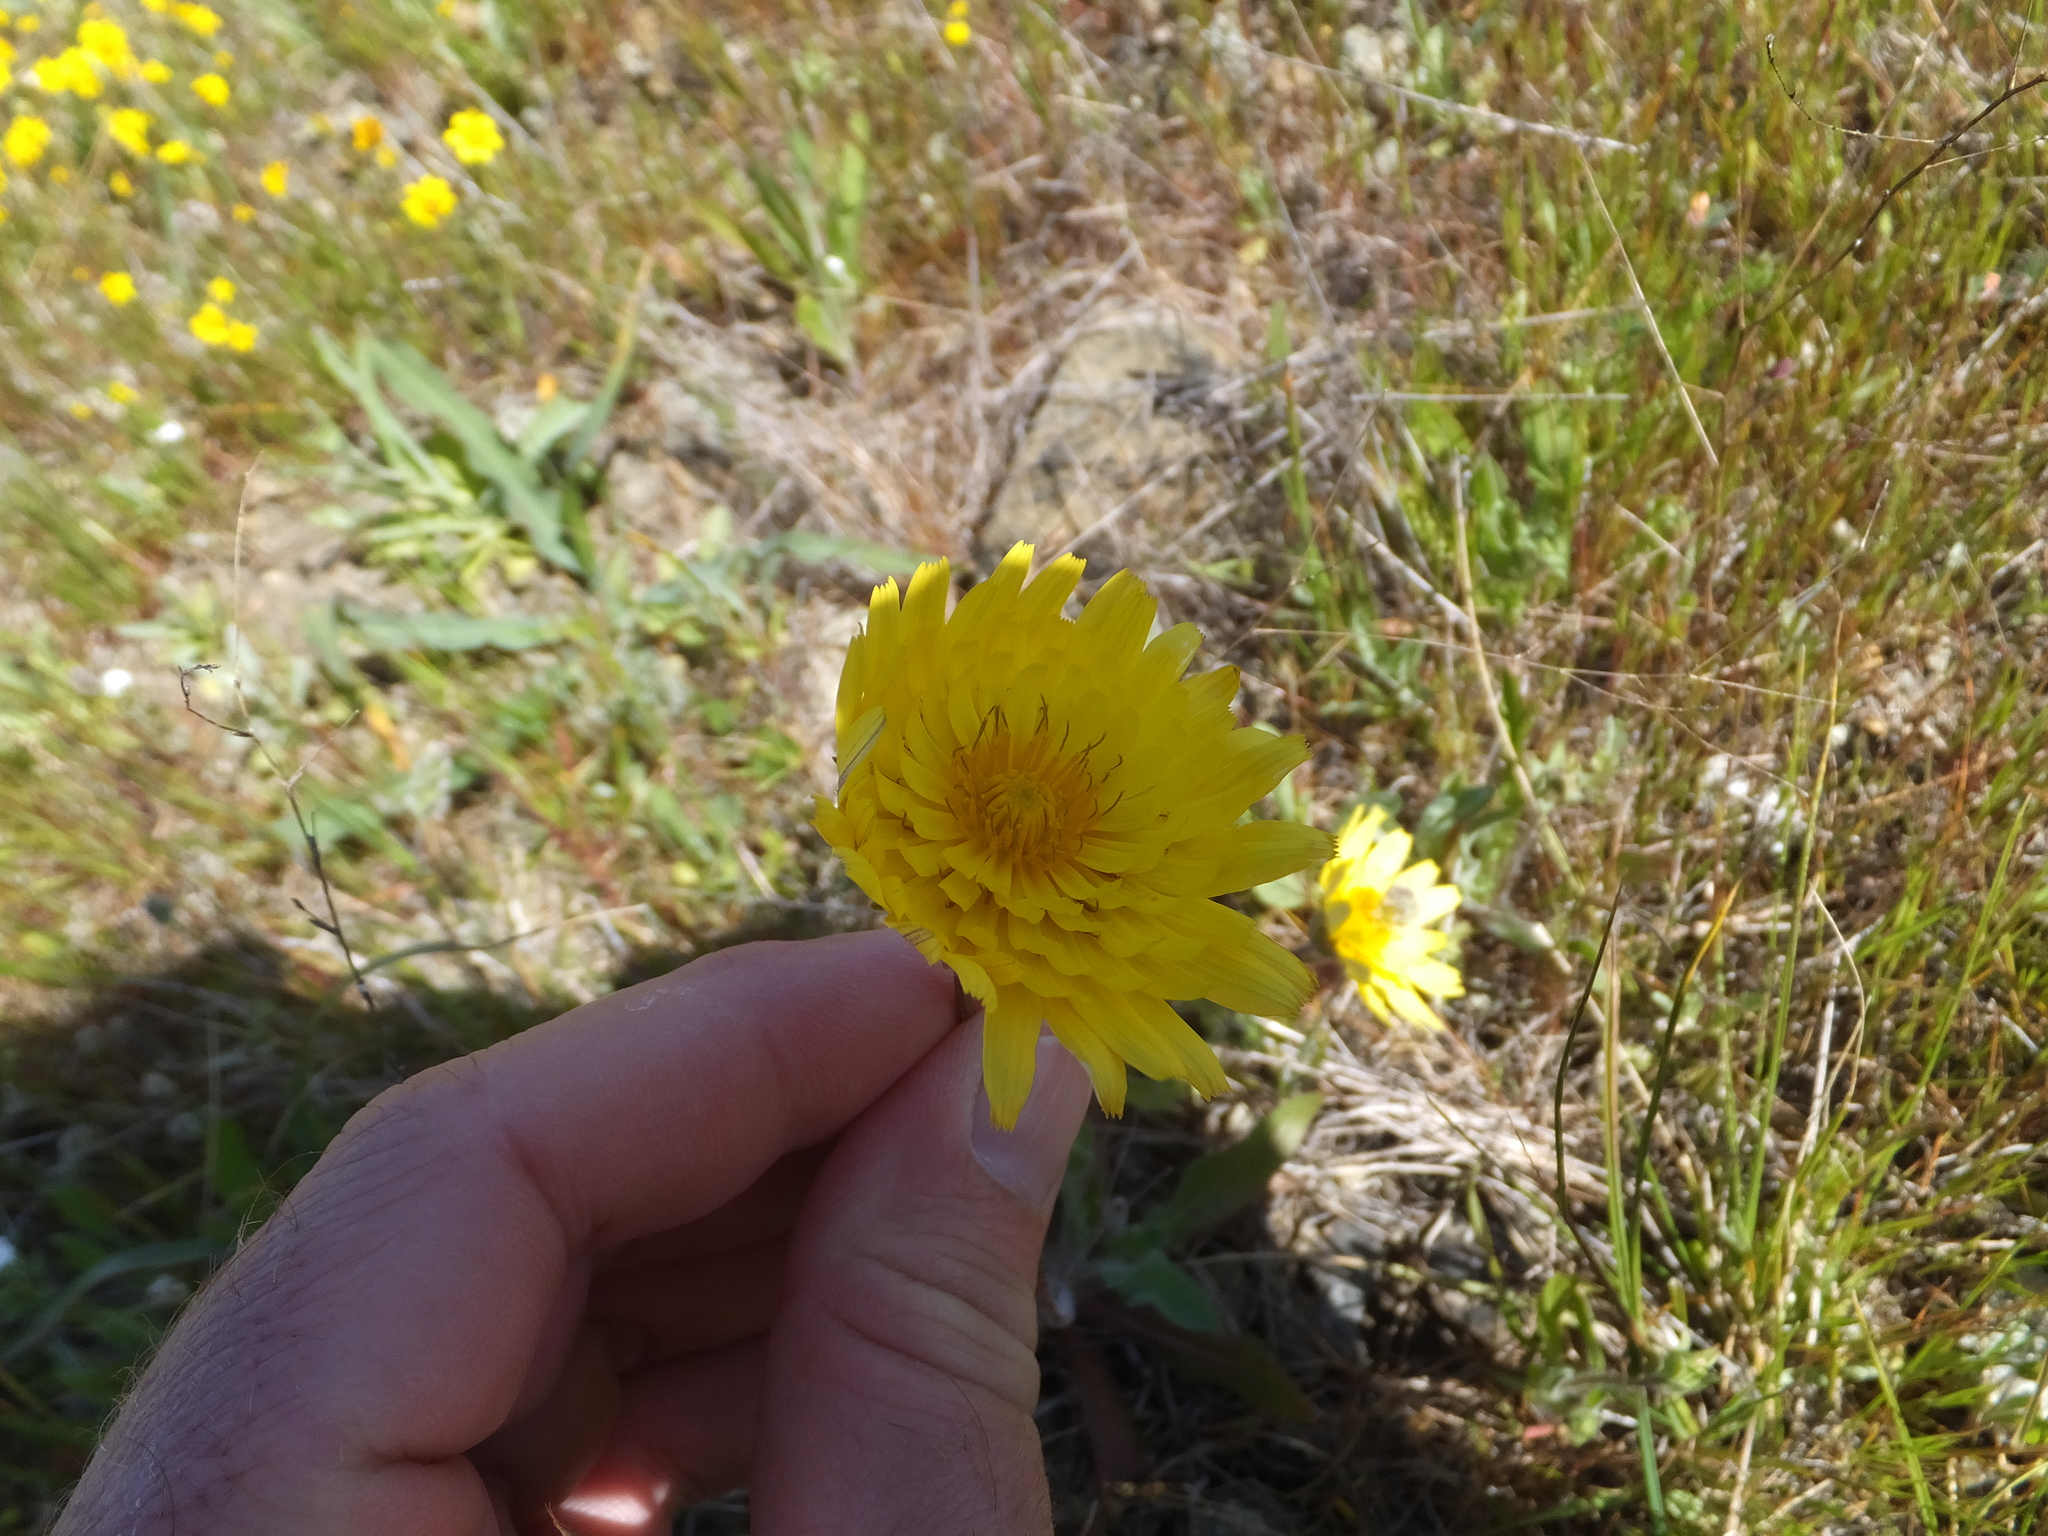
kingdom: Plantae
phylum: Tracheophyta
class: Magnoliopsida
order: Asterales
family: Asteraceae
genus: Agoseris
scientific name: Agoseris heterophylla
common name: Annual agoseris
